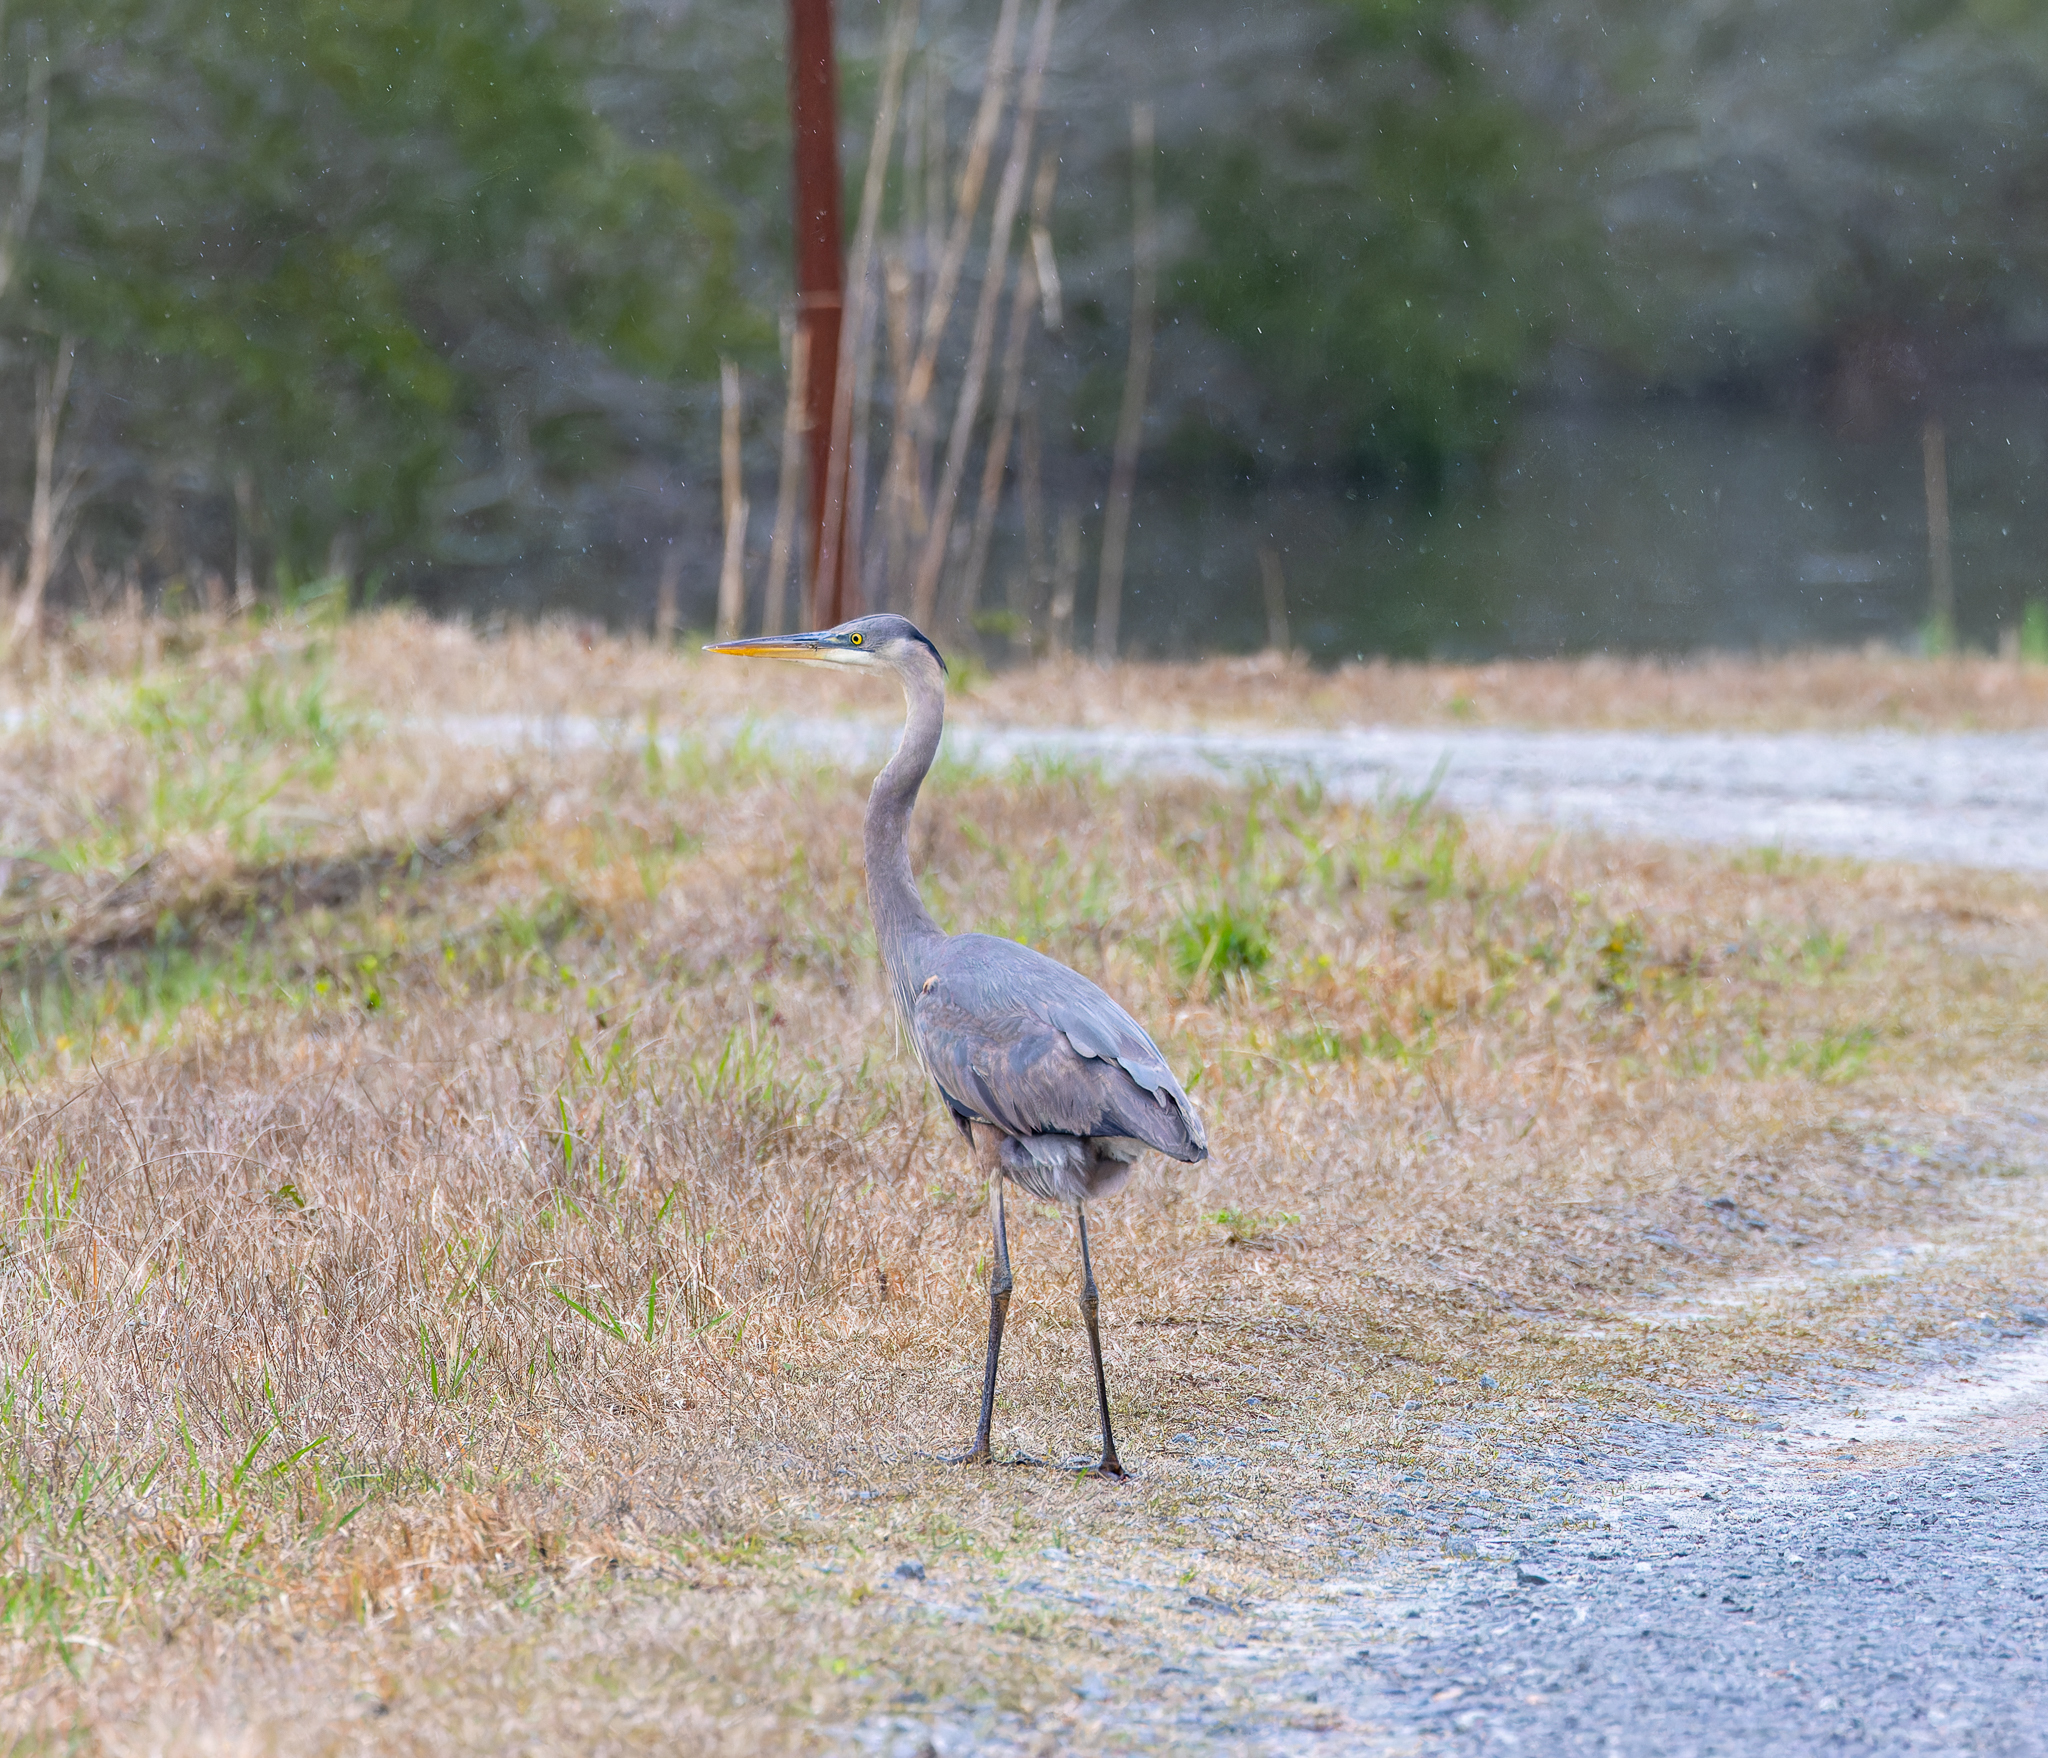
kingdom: Animalia
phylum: Chordata
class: Aves
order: Pelecaniformes
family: Ardeidae
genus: Ardea
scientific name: Ardea herodias
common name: Great blue heron
